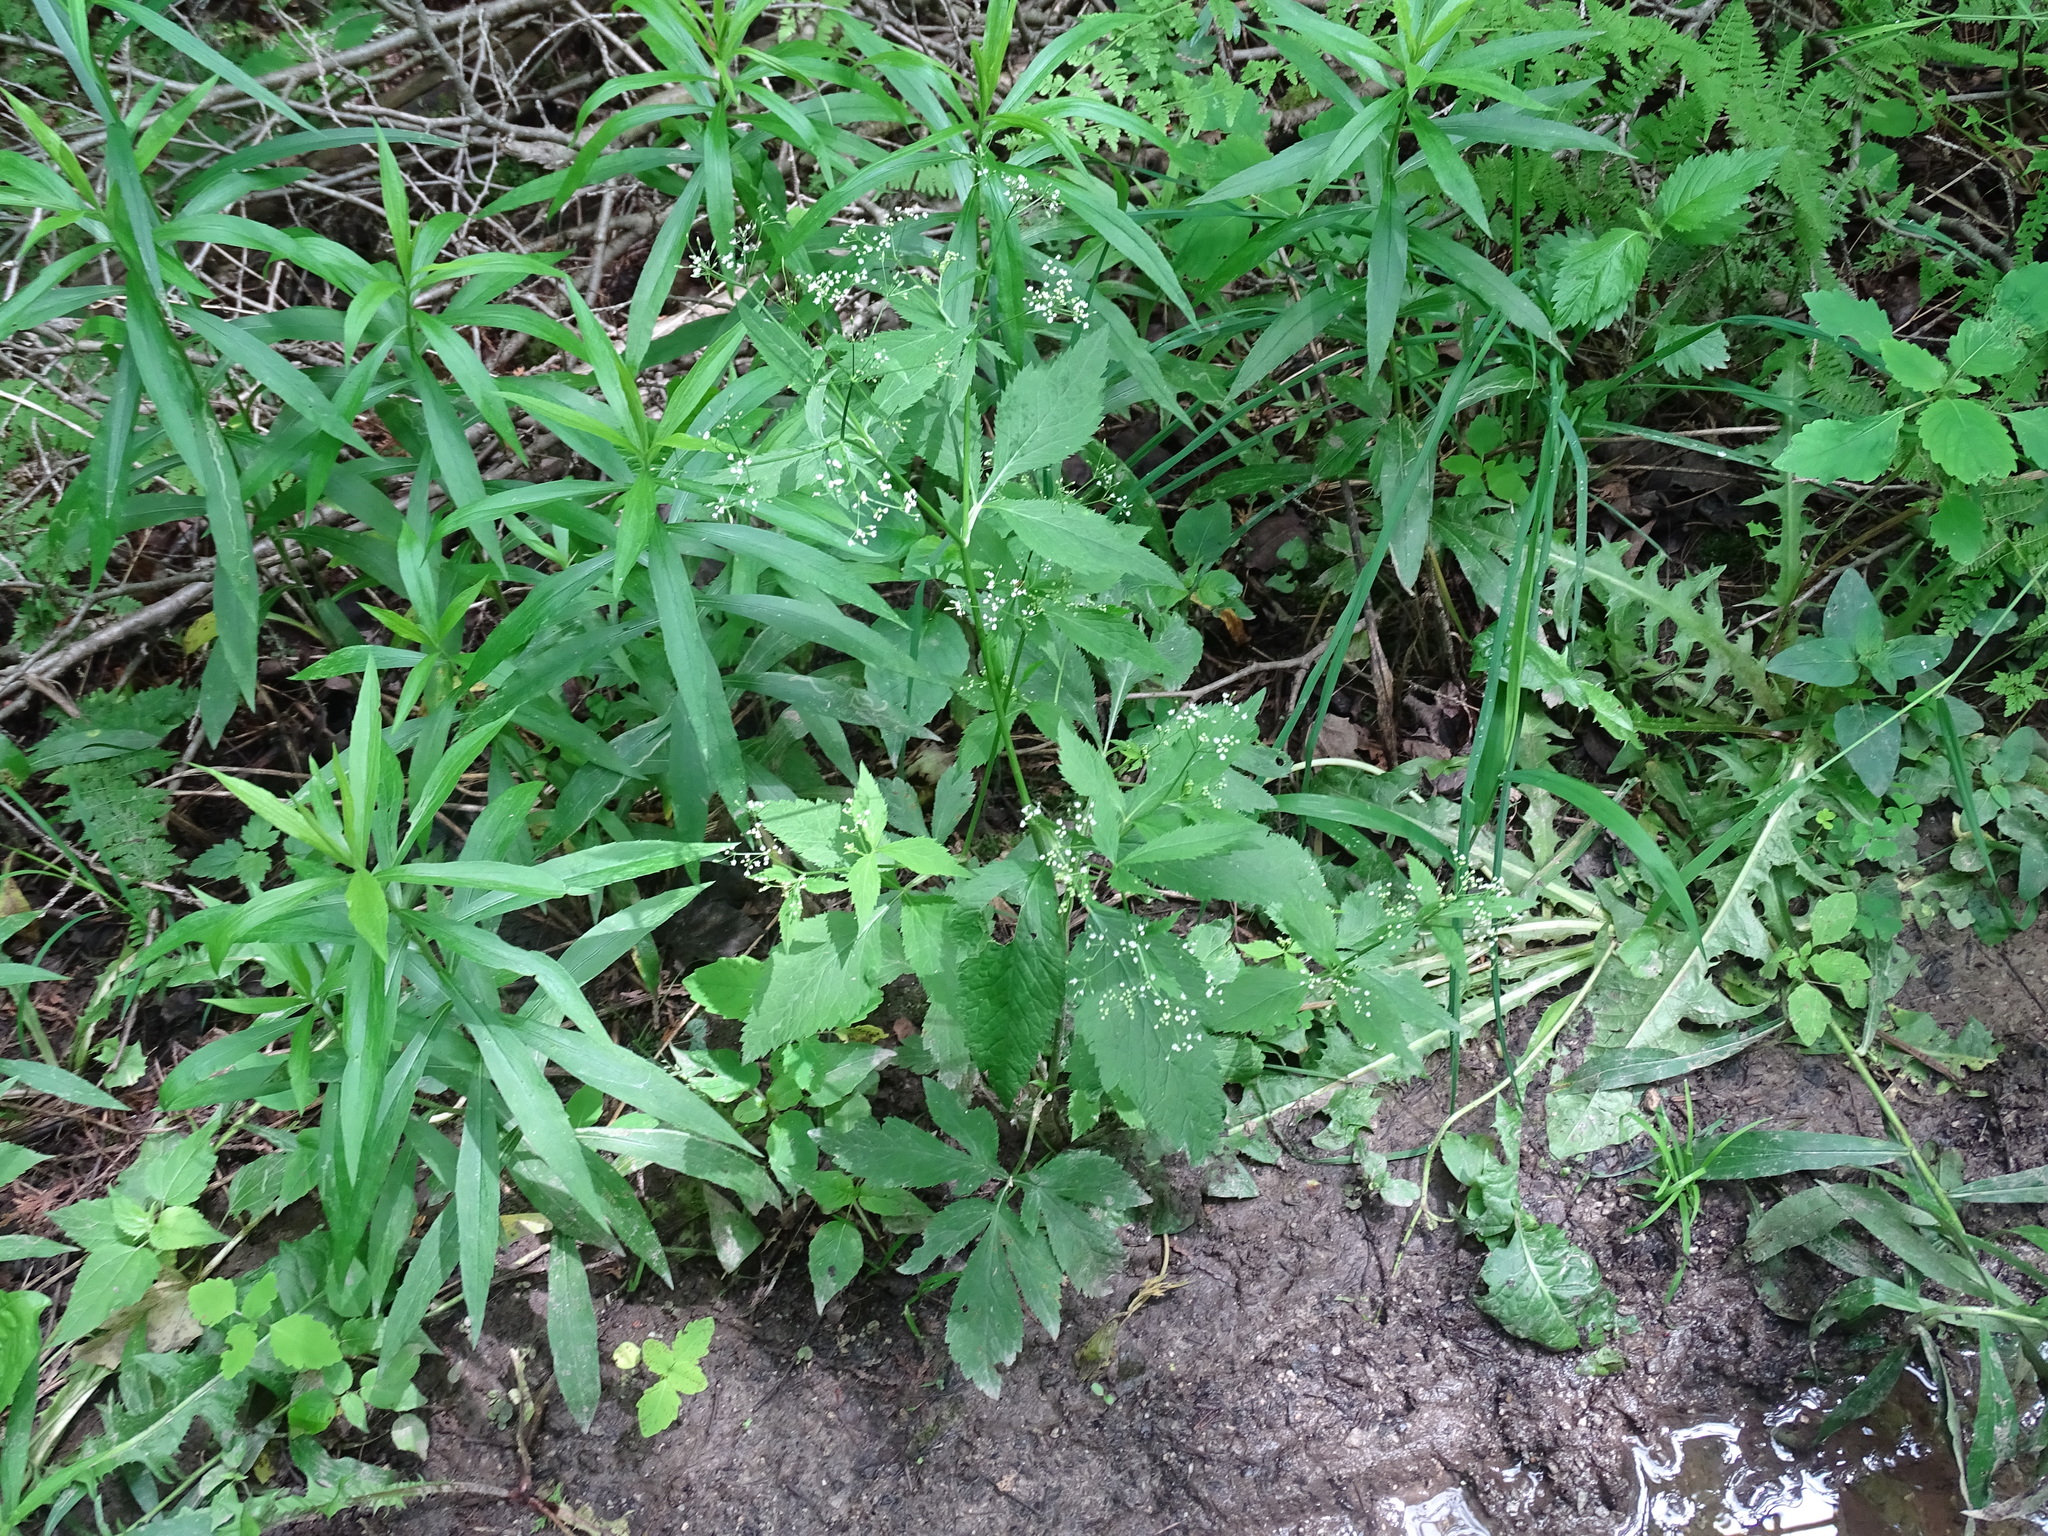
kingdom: Plantae
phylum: Tracheophyta
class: Magnoliopsida
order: Apiales
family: Apiaceae
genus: Cryptotaenia
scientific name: Cryptotaenia canadensis
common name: Honewort
